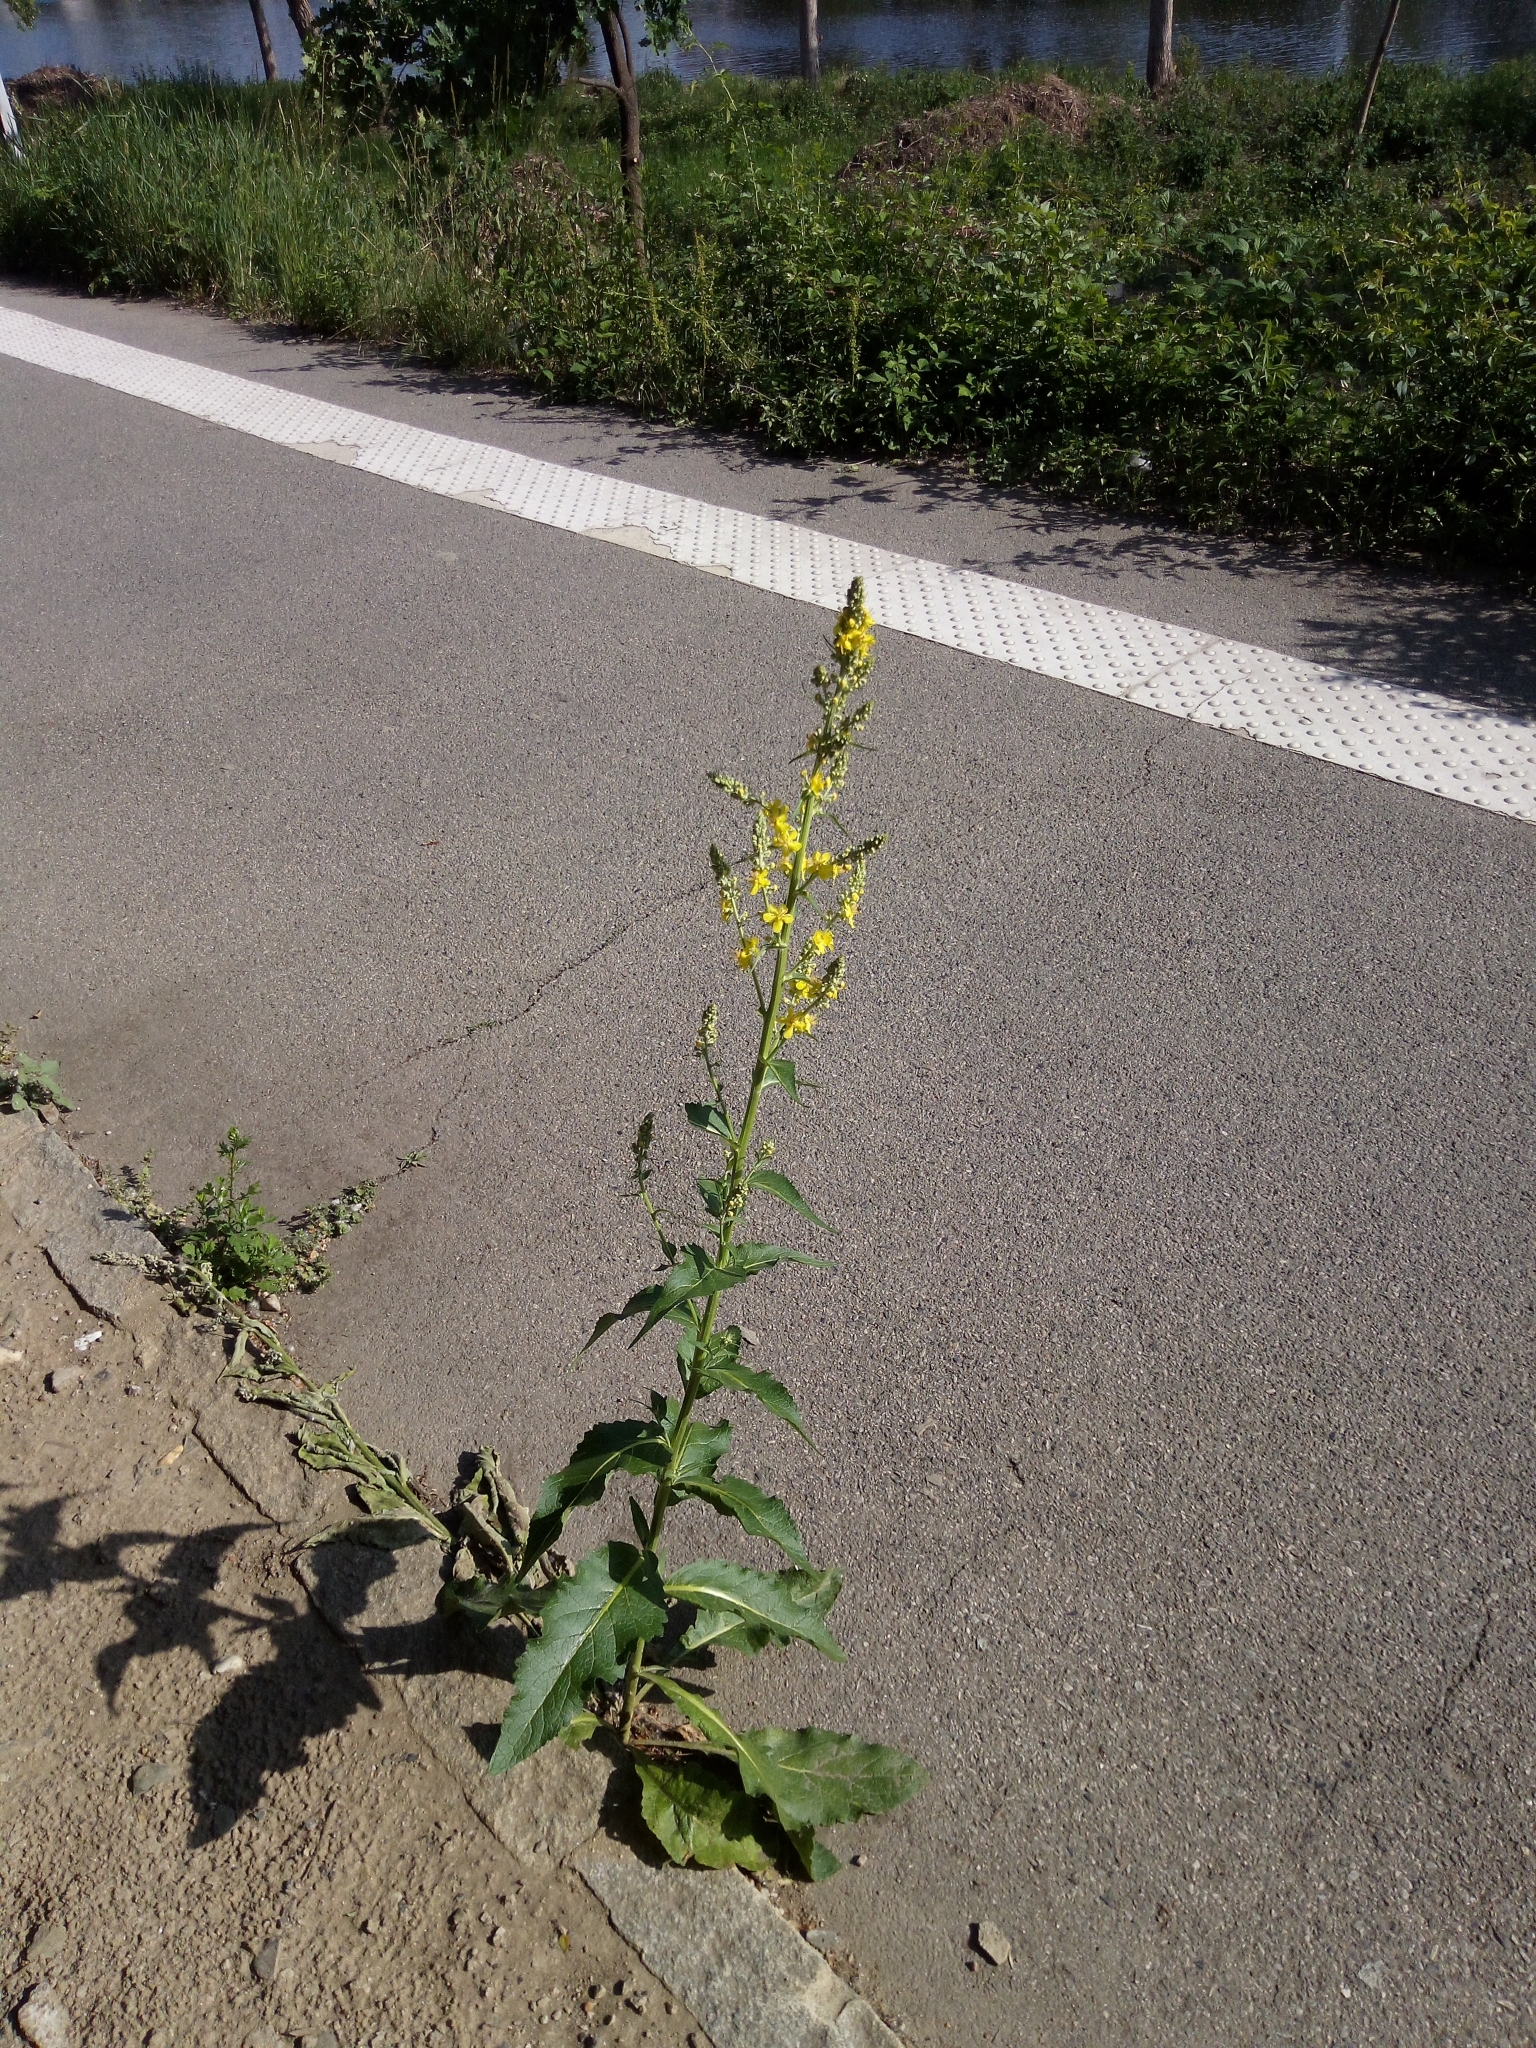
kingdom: Plantae
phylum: Tracheophyta
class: Magnoliopsida
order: Lamiales
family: Scrophulariaceae
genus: Verbascum
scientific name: Verbascum lychnitis
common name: White mullein
